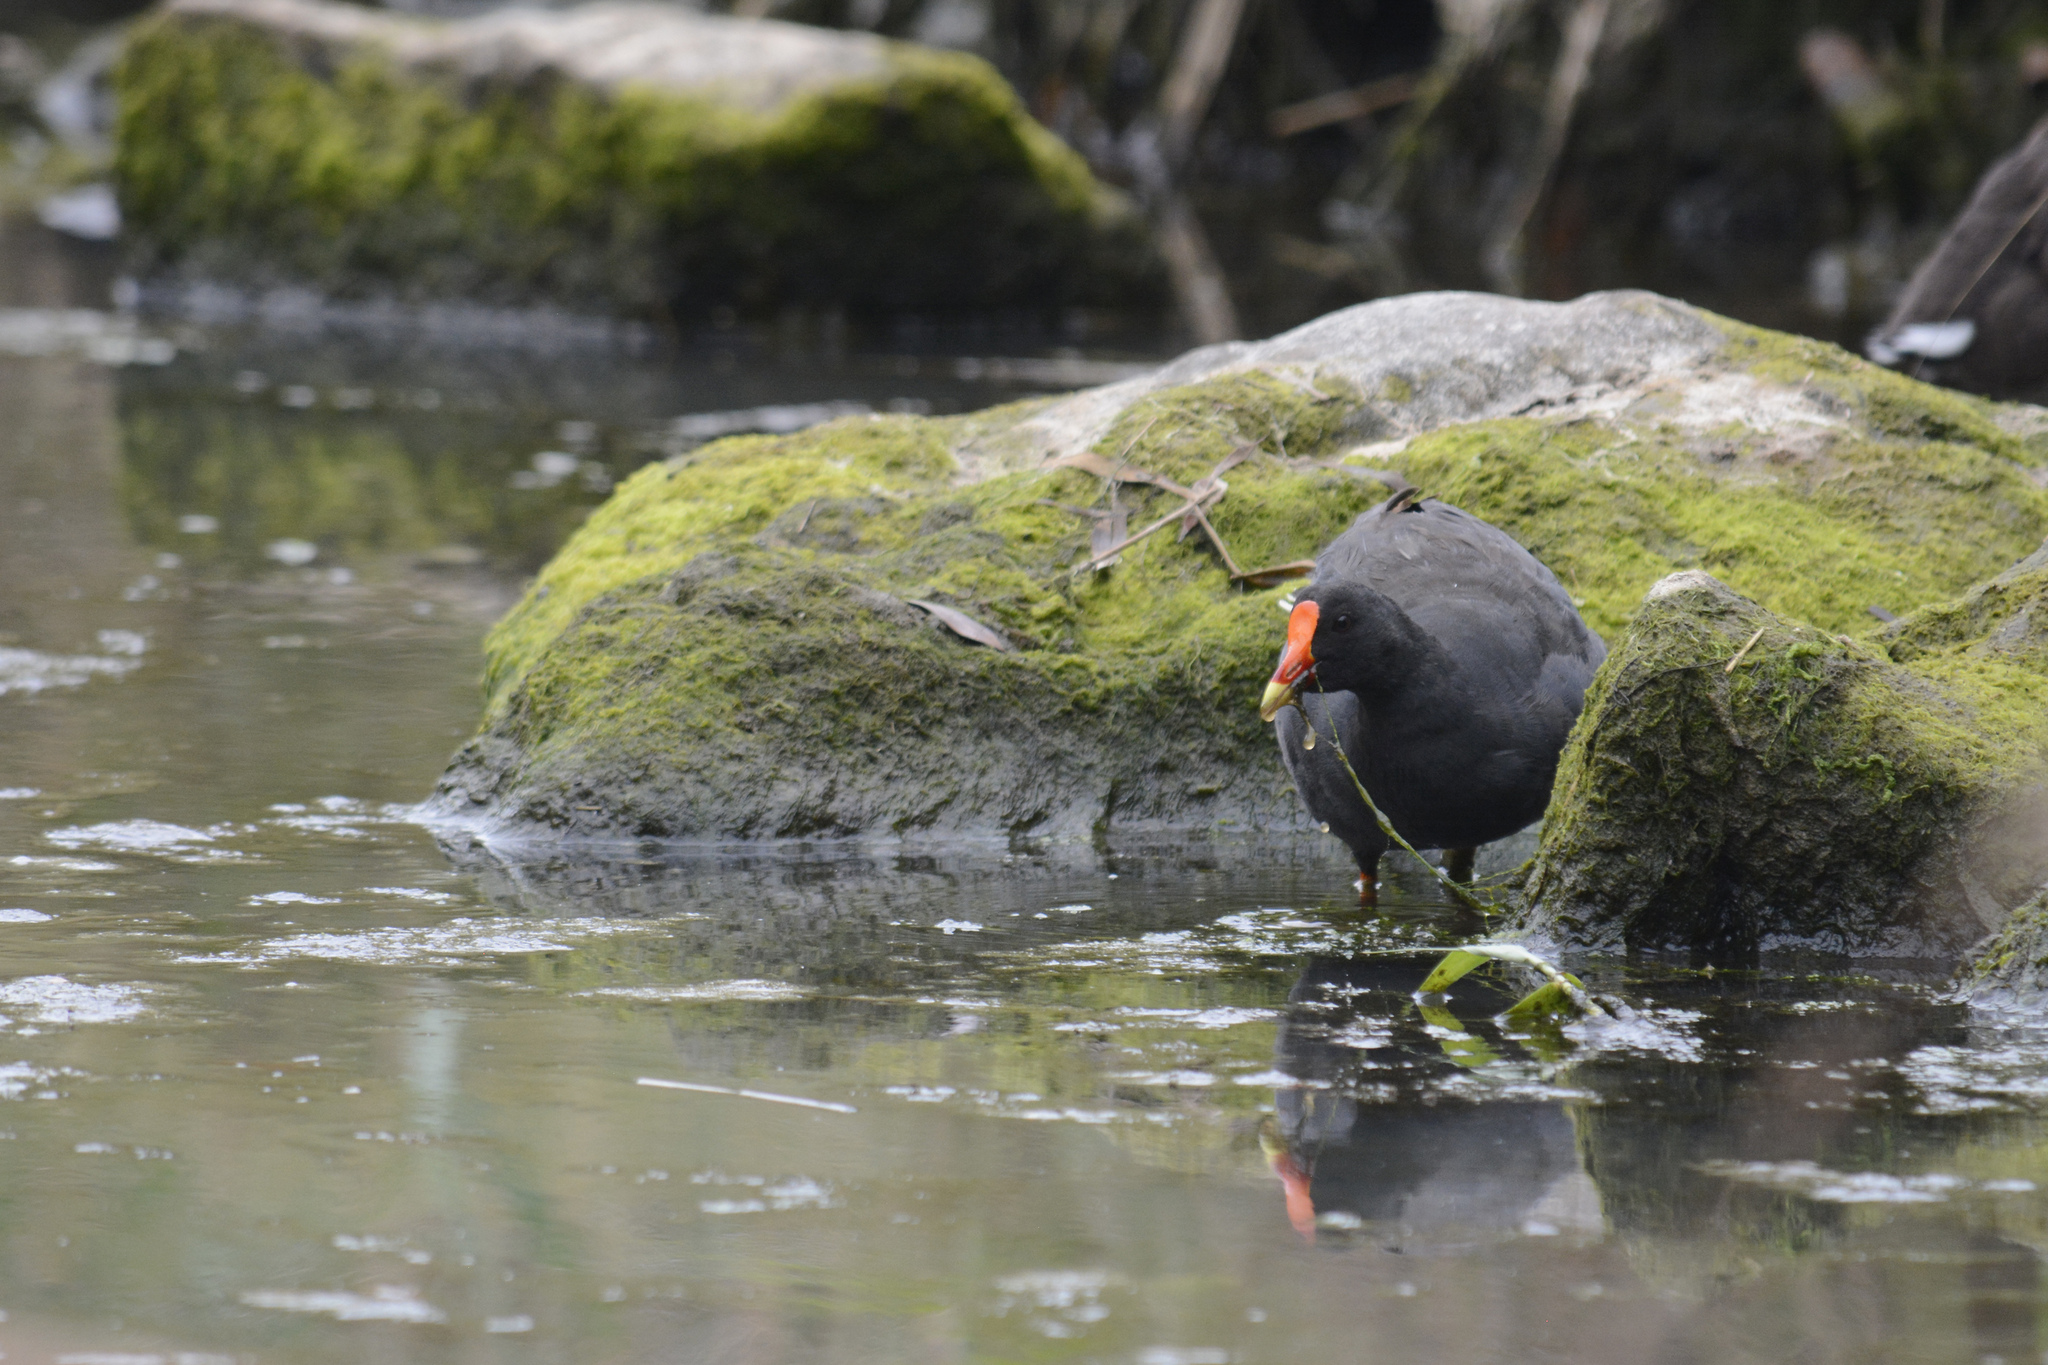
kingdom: Animalia
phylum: Chordata
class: Aves
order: Gruiformes
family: Rallidae
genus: Gallinula
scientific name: Gallinula tenebrosa
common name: Dusky moorhen
